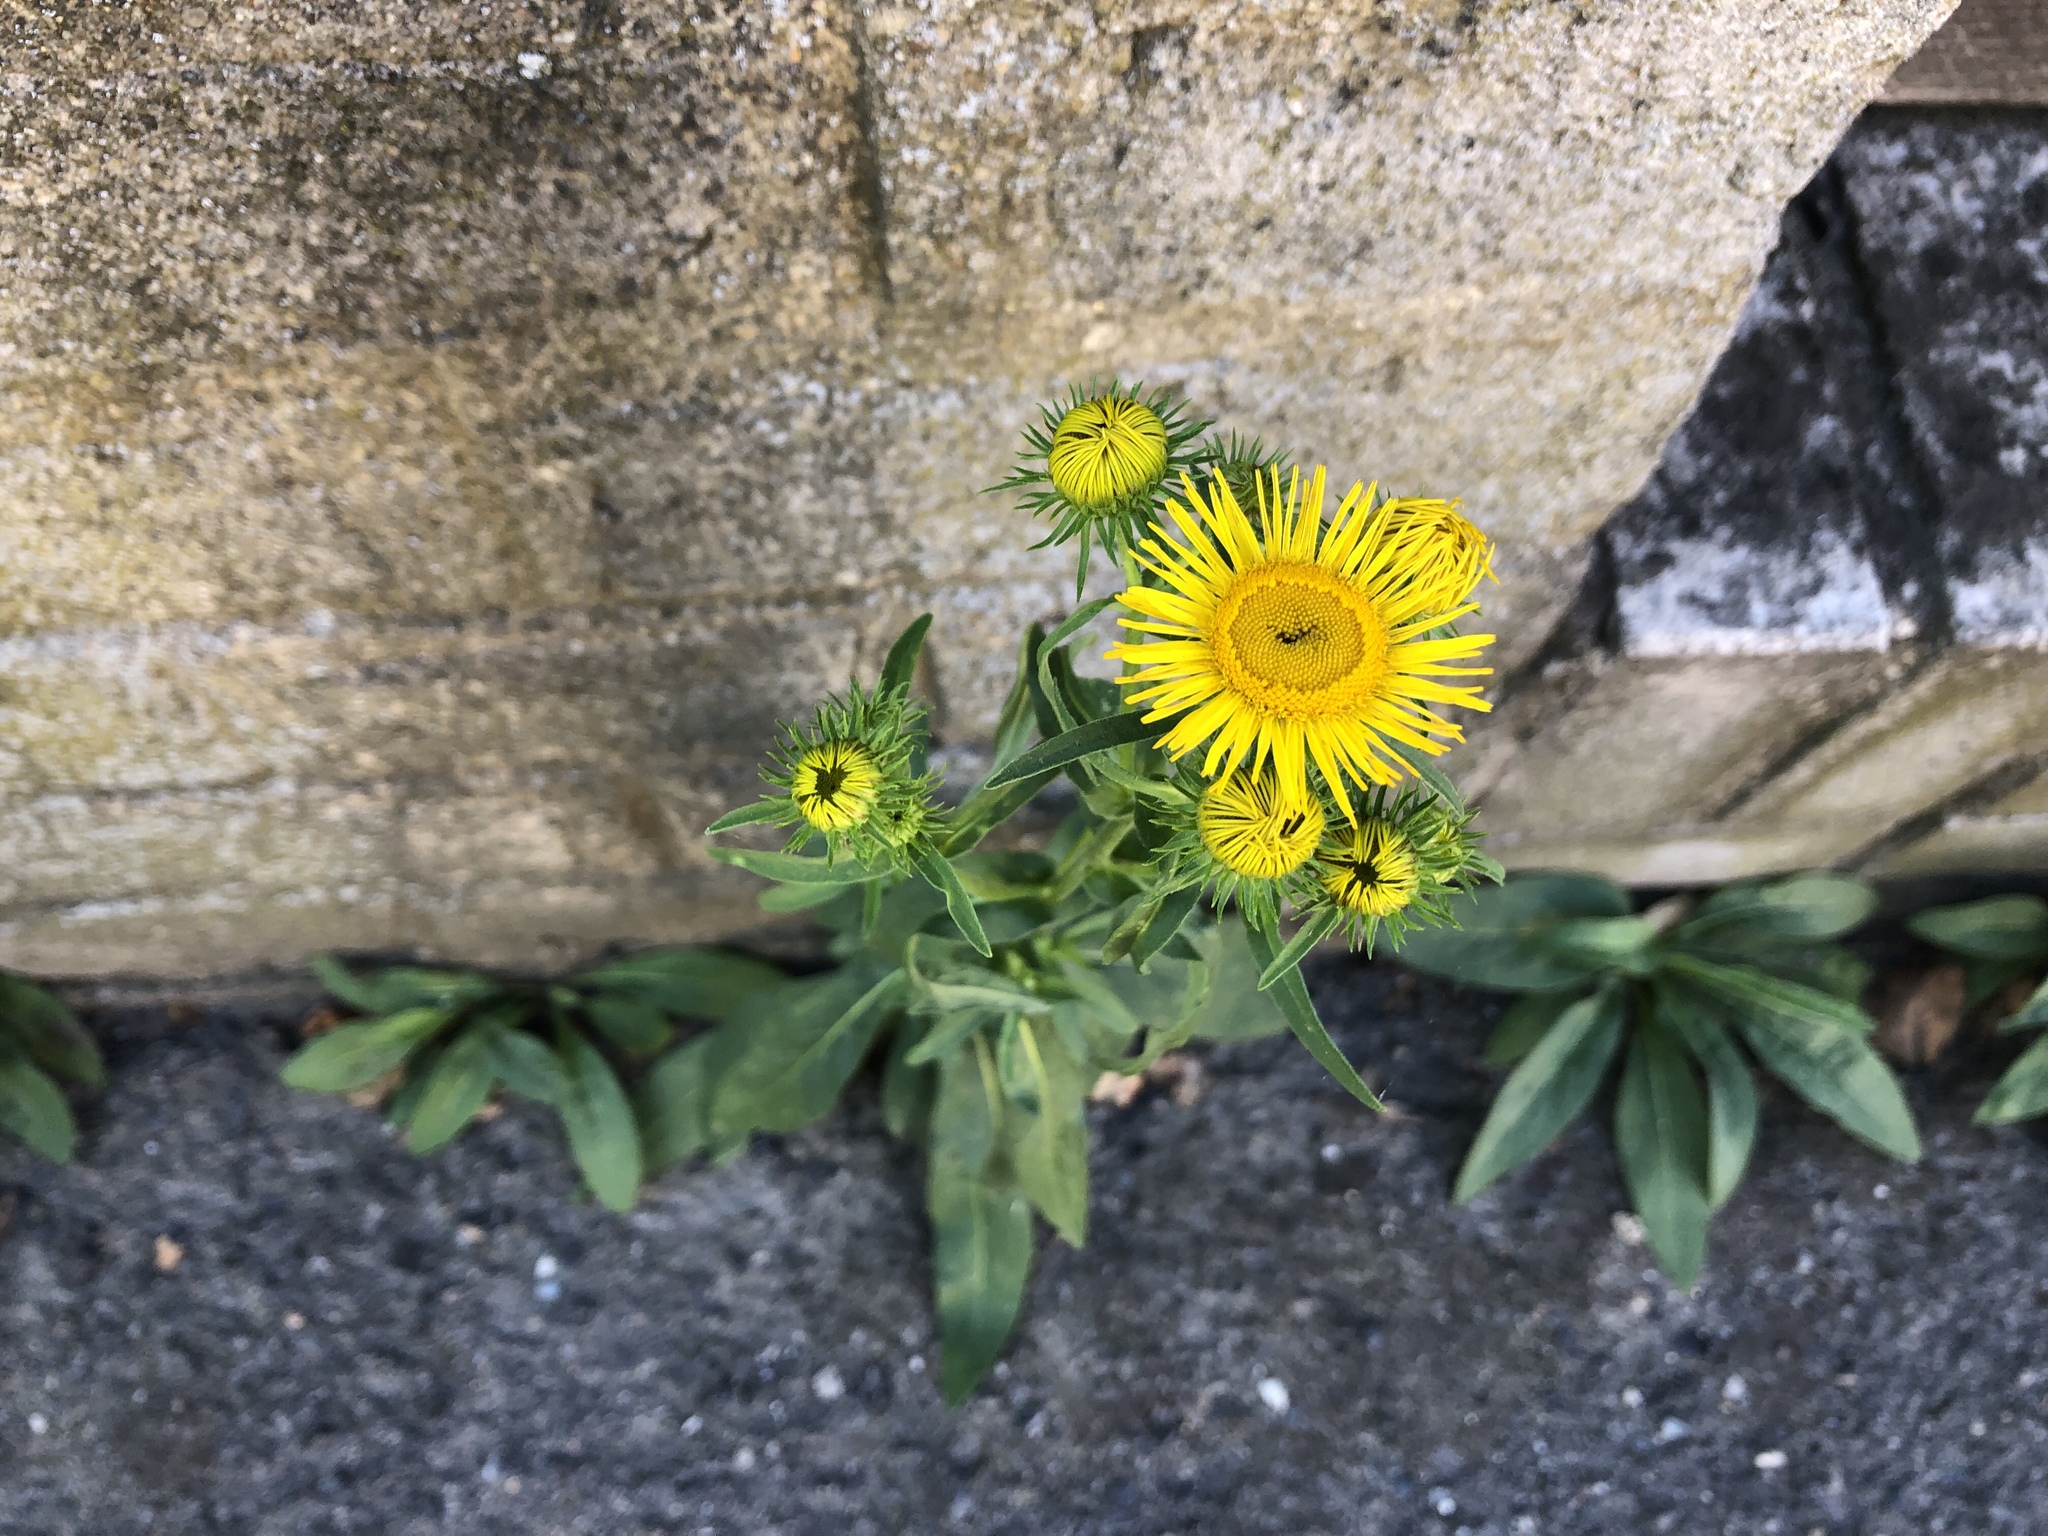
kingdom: Plantae
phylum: Tracheophyta
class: Magnoliopsida
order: Asterales
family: Asteraceae
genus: Pentanema
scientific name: Pentanema britannicum
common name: British elecampane
